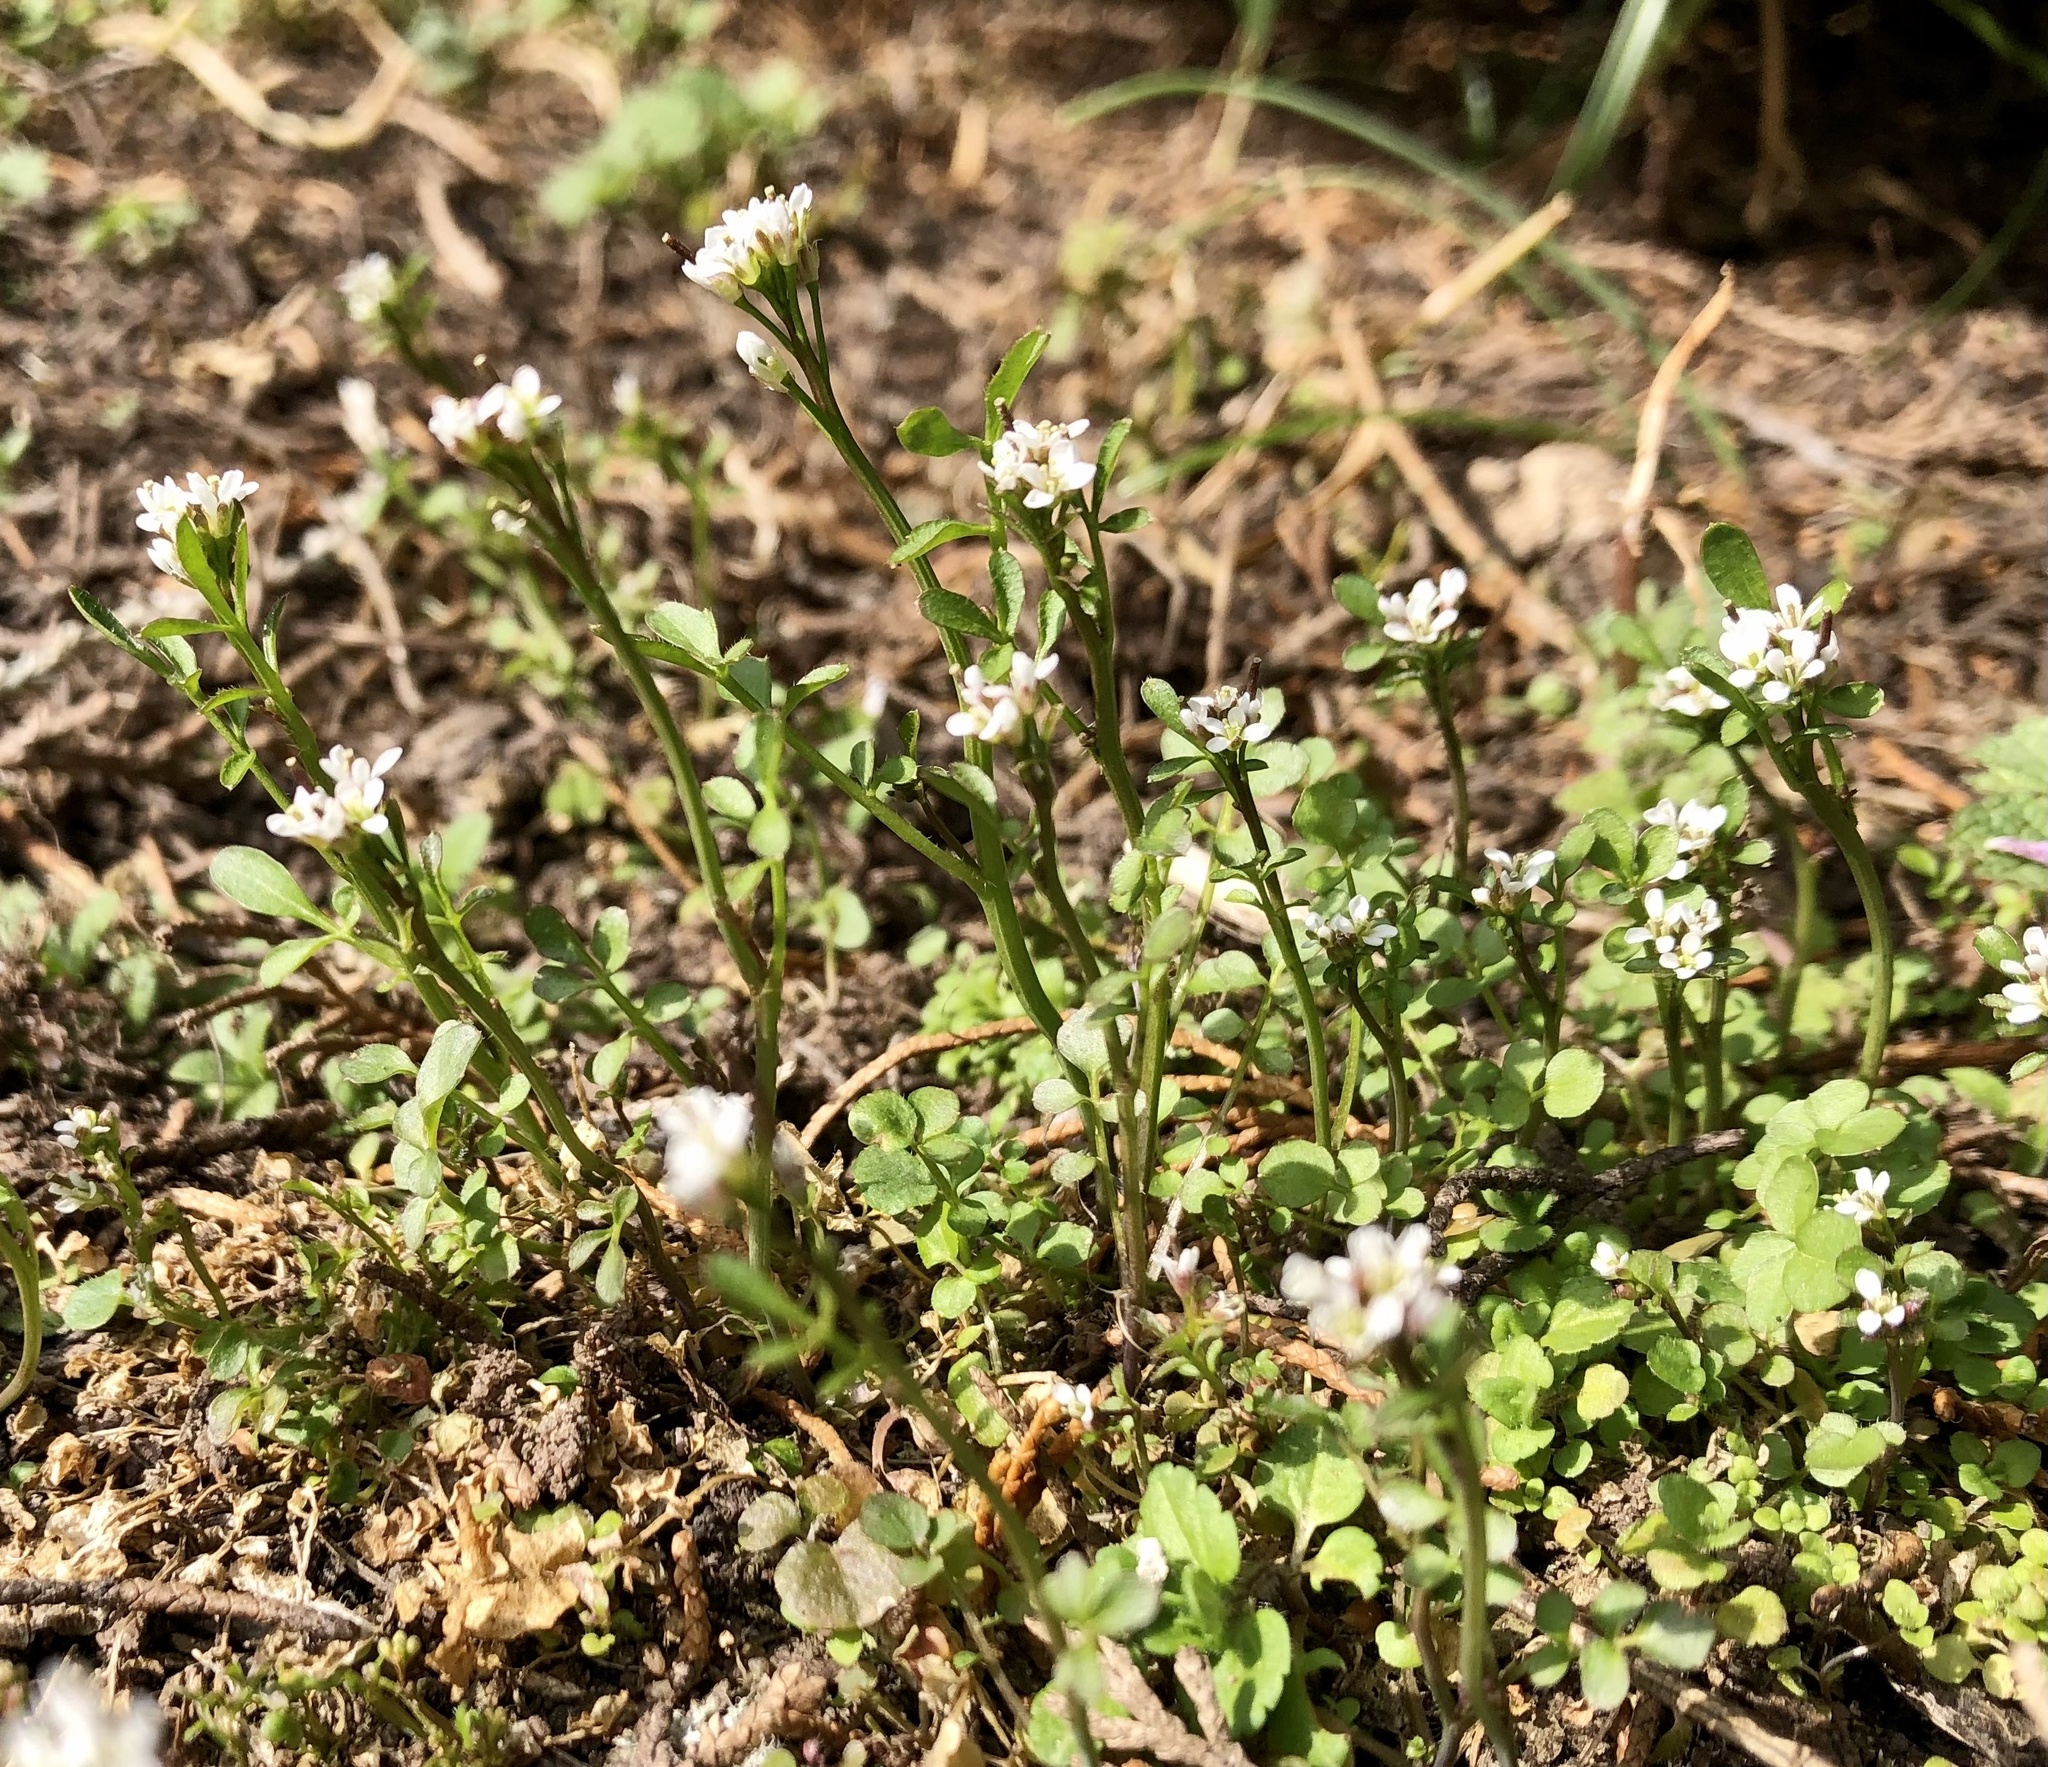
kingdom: Plantae
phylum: Tracheophyta
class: Magnoliopsida
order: Brassicales
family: Brassicaceae
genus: Cardamine
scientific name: Cardamine hirsuta
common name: Hairy bittercress
